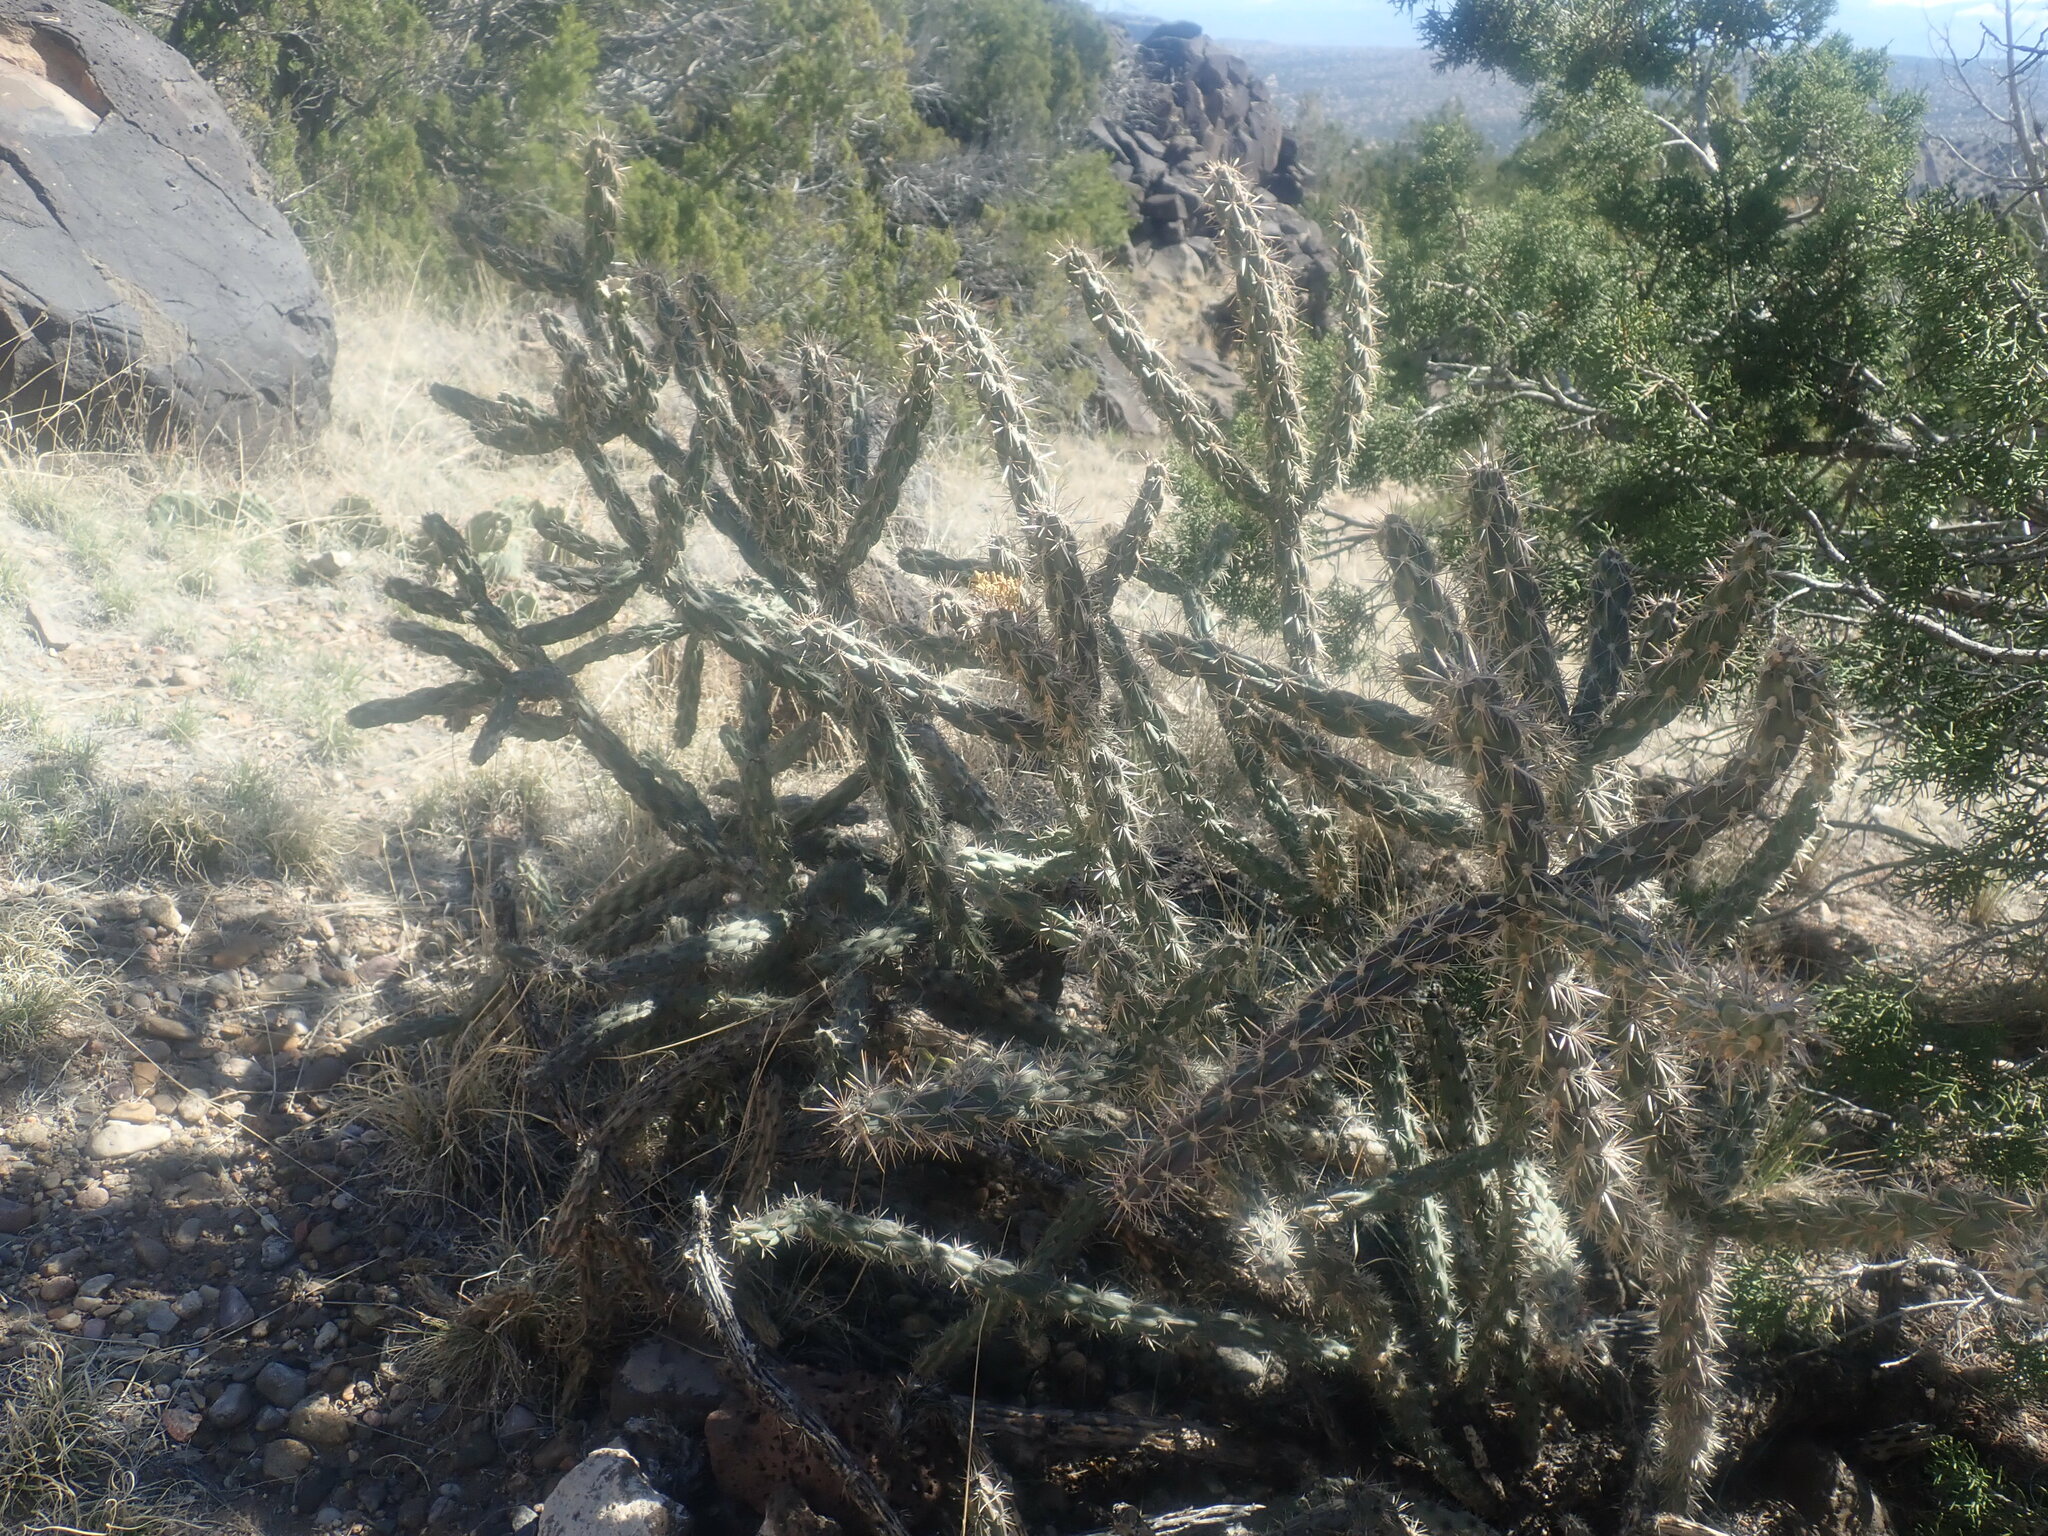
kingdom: Plantae
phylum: Tracheophyta
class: Magnoliopsida
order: Caryophyllales
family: Cactaceae
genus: Cylindropuntia
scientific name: Cylindropuntia imbricata
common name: Candelabrum cactus
